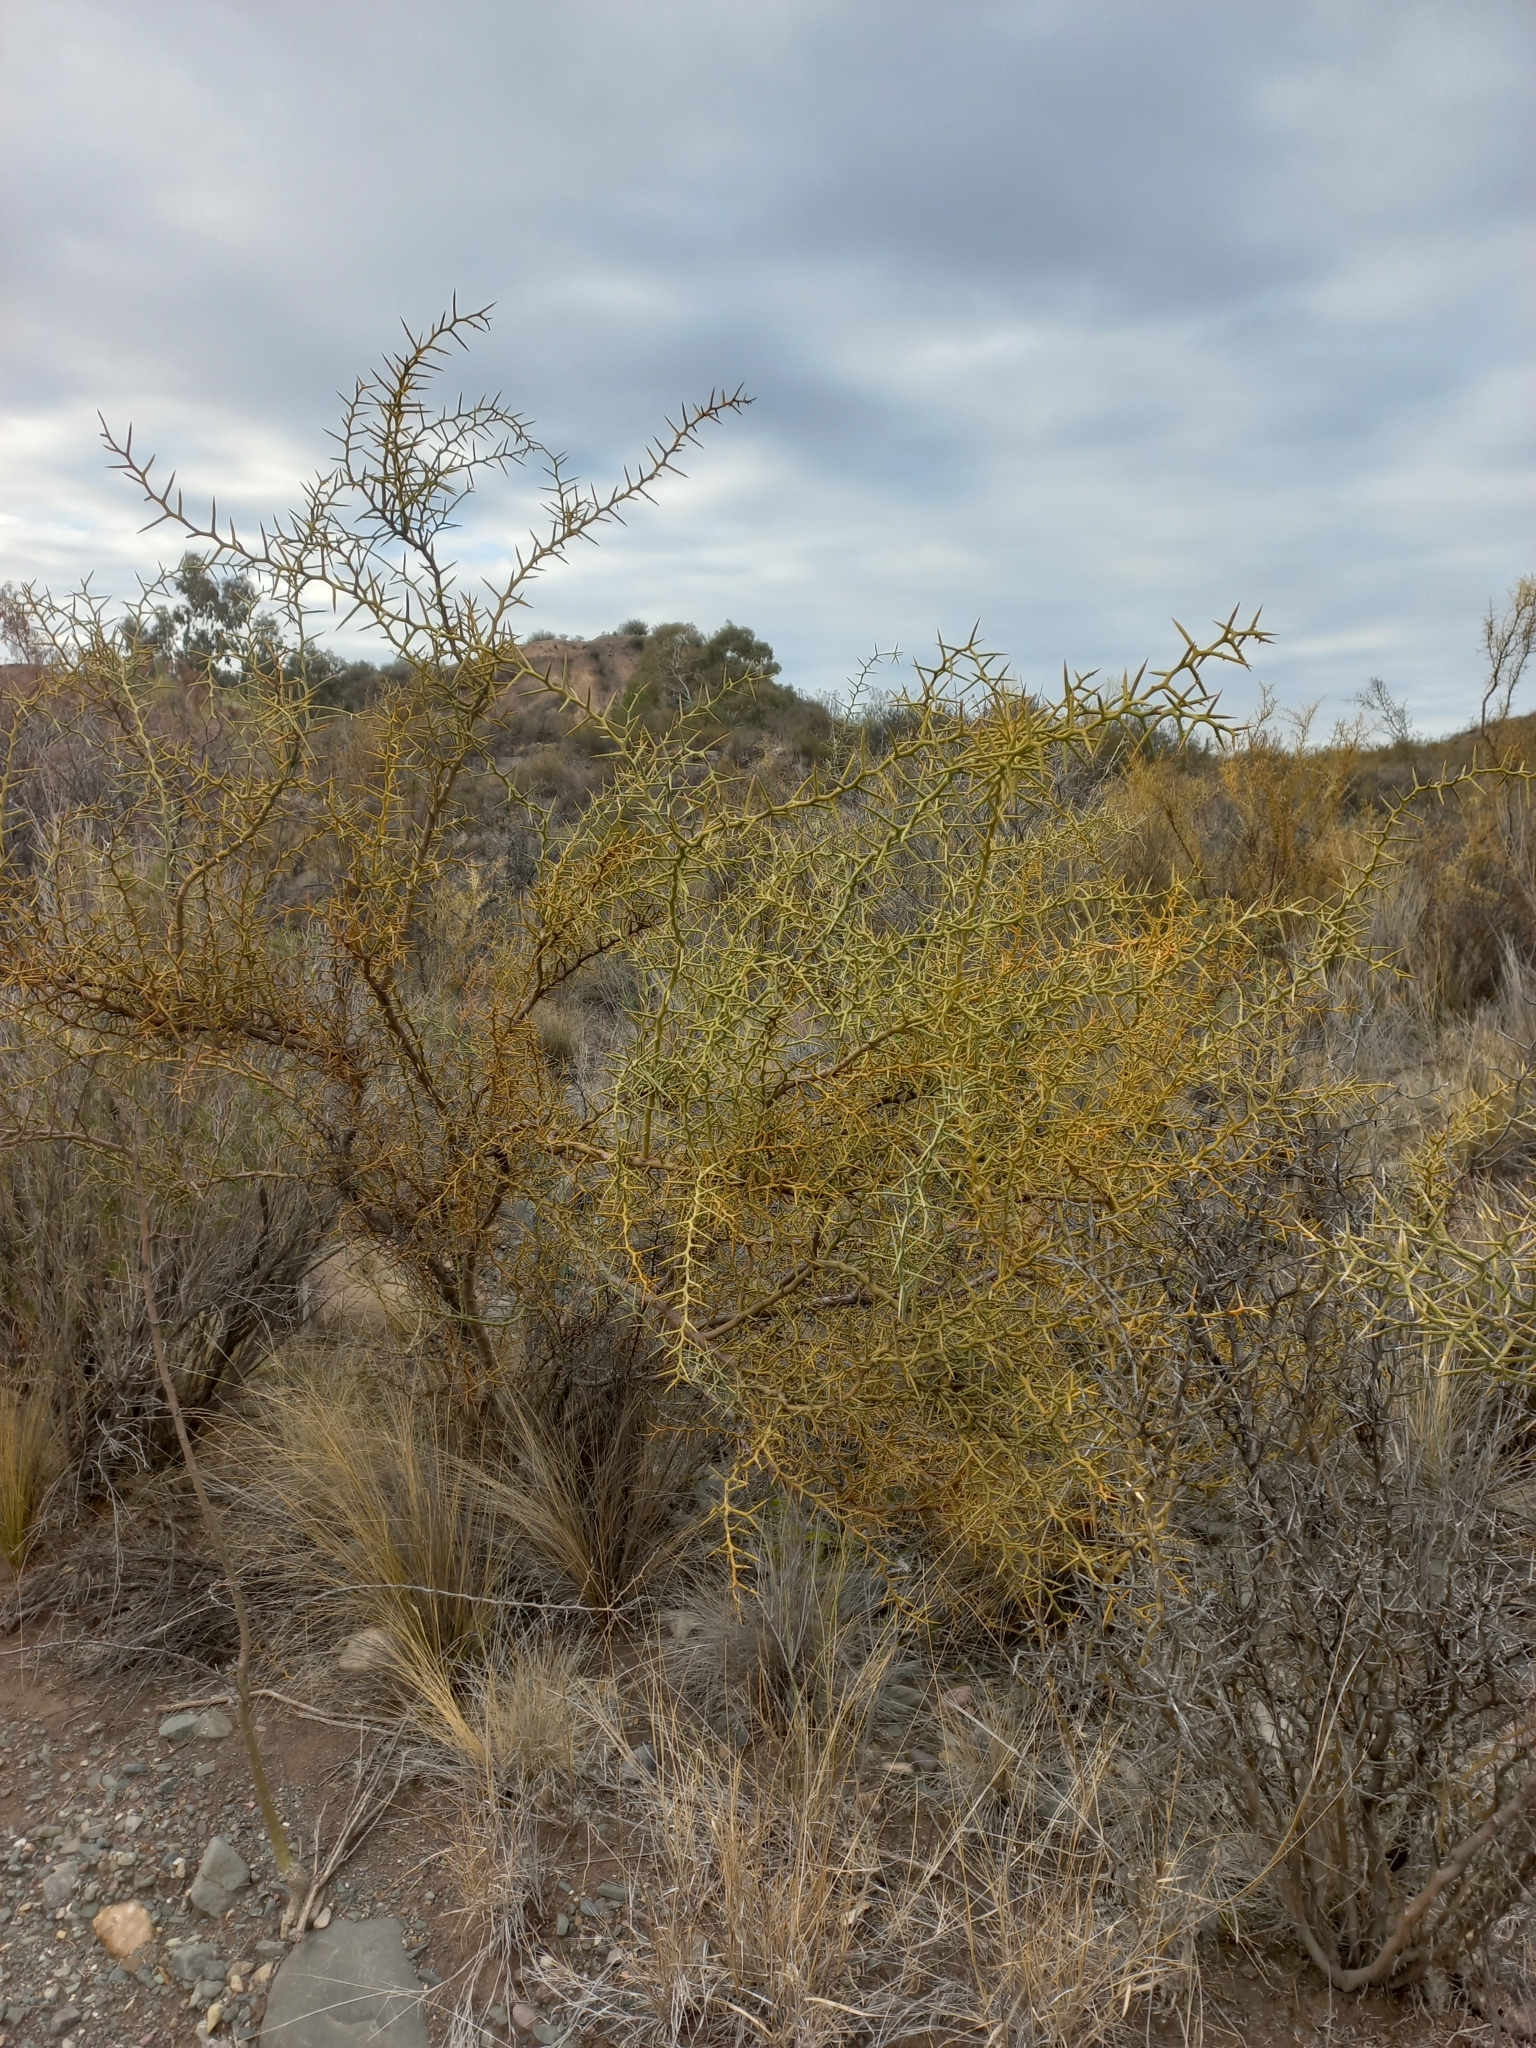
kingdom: Plantae
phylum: Tracheophyta
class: Magnoliopsida
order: Fabales
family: Polygalaceae
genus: Bredemeyera
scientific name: Bredemeyera colletioides
